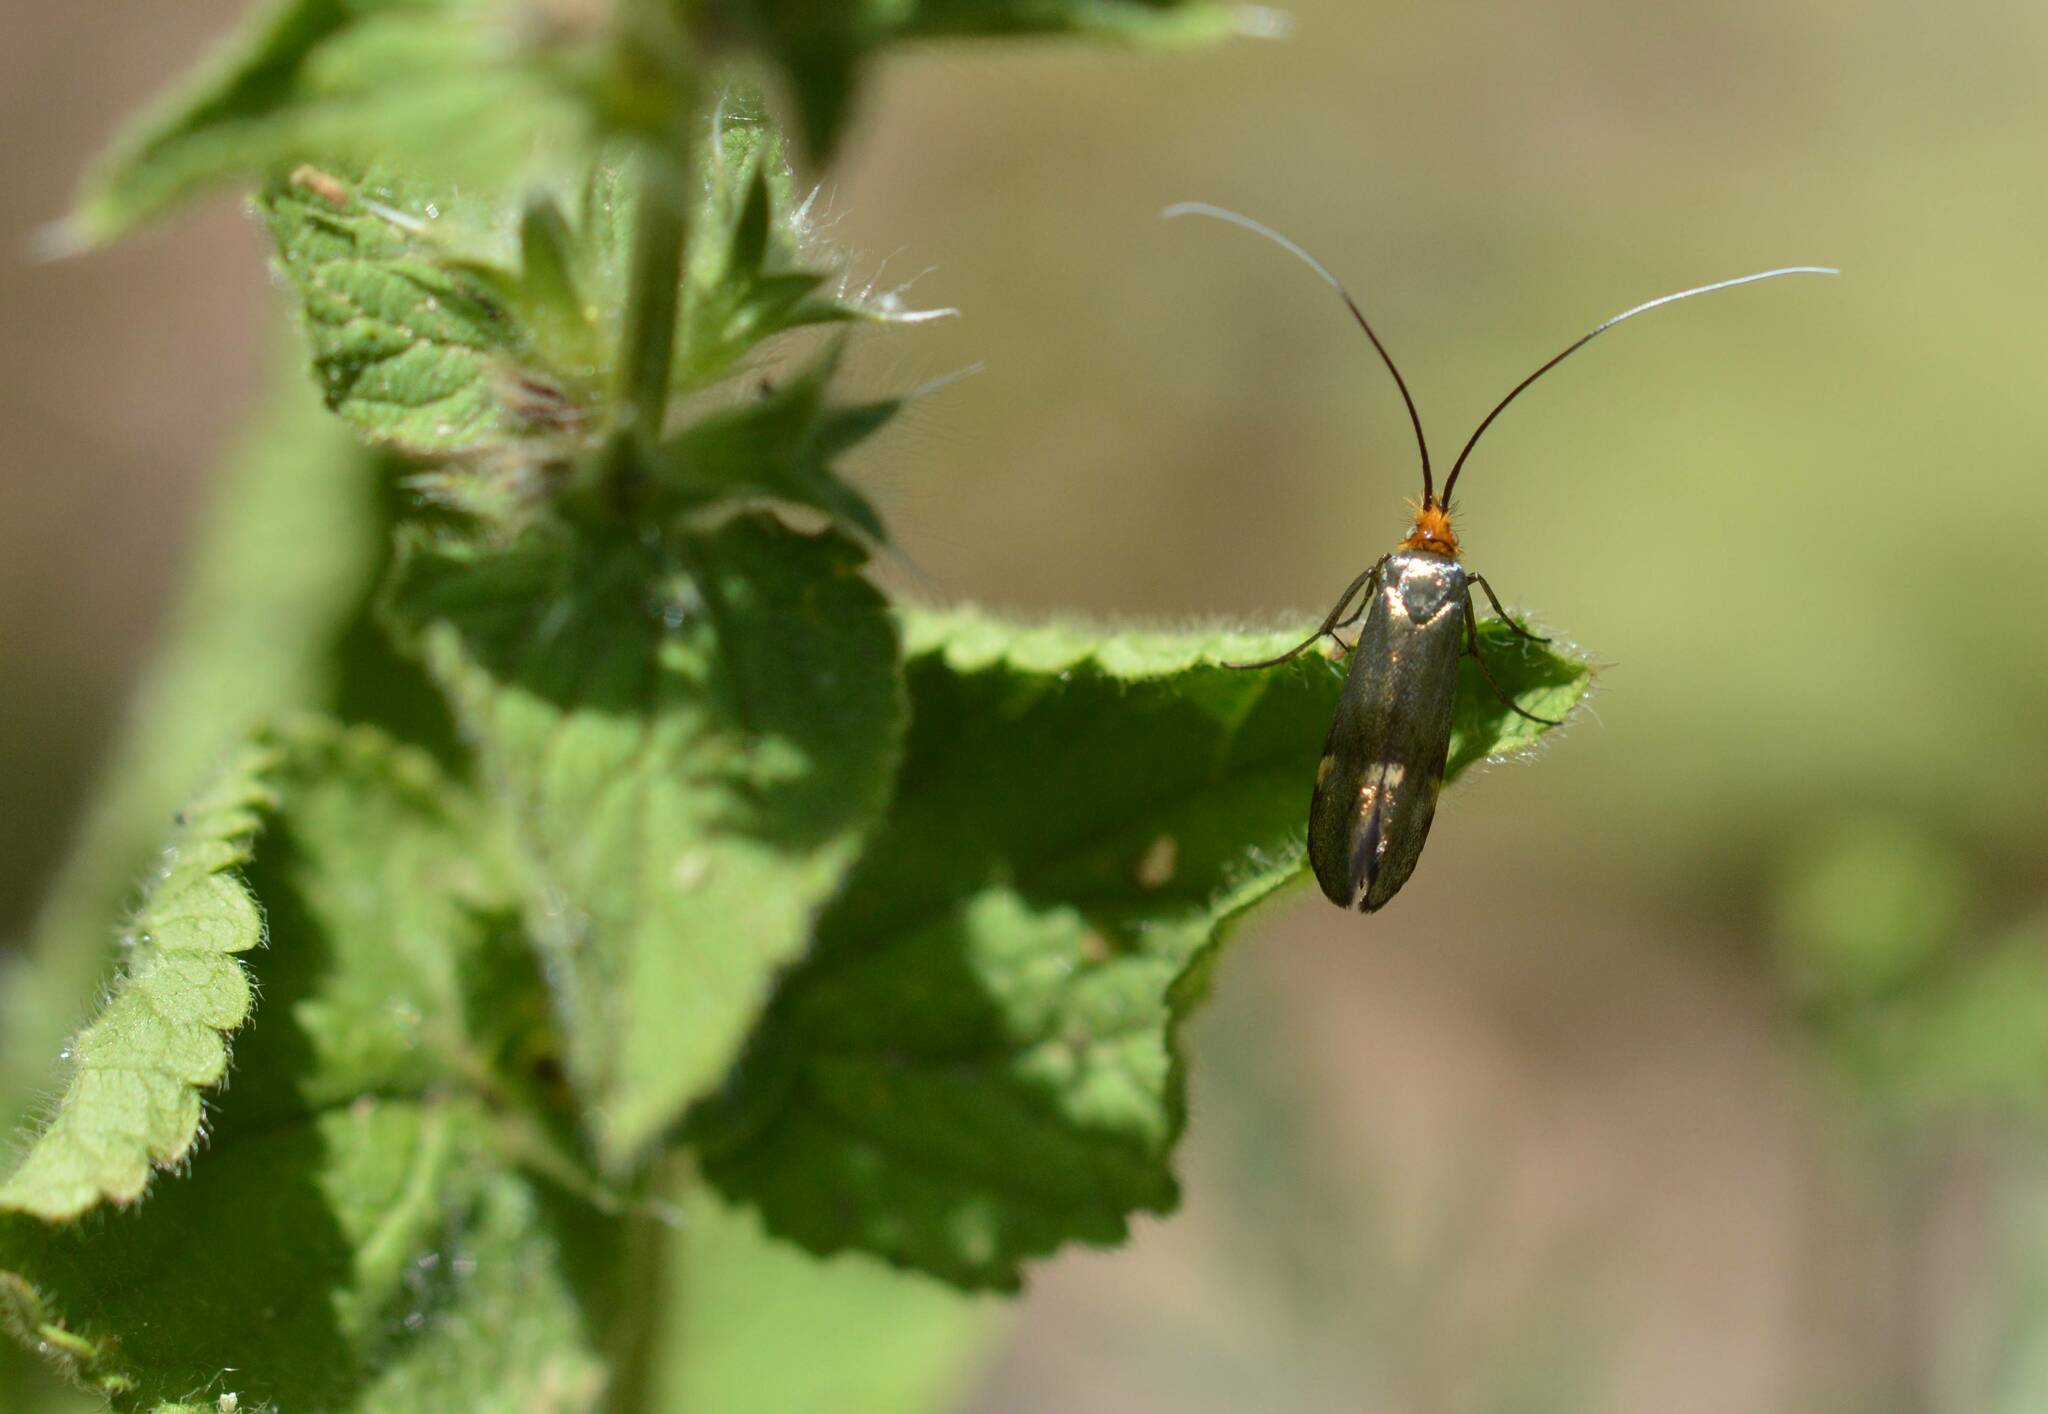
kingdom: Animalia
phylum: Arthropoda
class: Insecta
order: Lepidoptera
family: Adelidae
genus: Nemophora
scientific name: Nemophora raddaella
